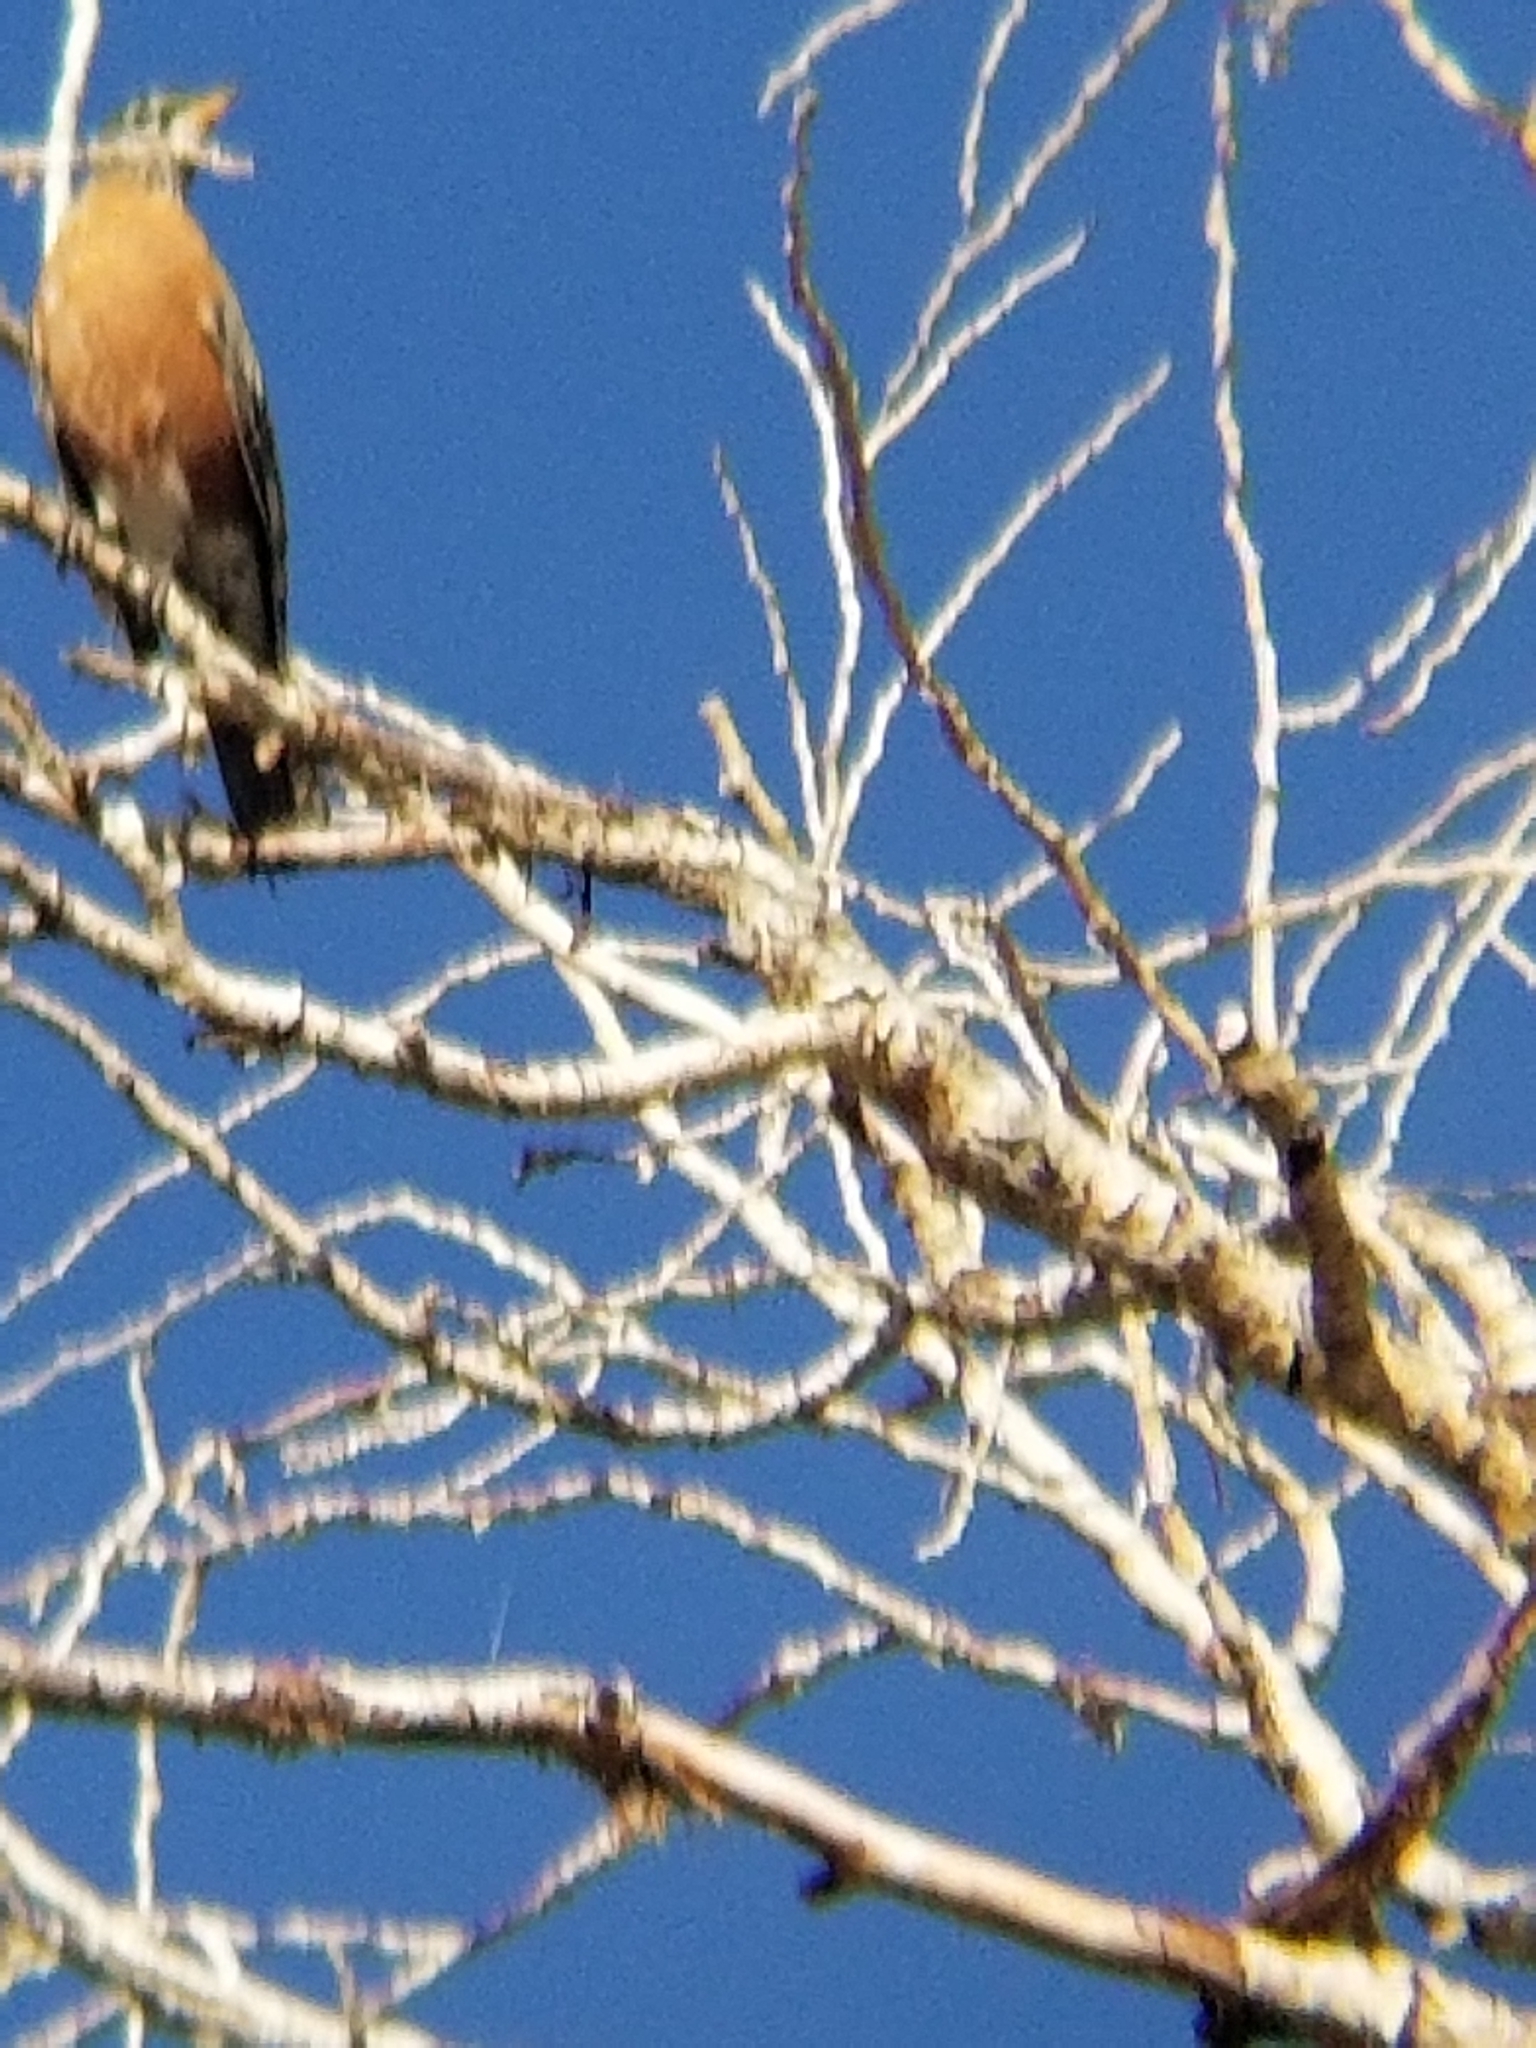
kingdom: Animalia
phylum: Chordata
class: Aves
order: Passeriformes
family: Turdidae
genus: Turdus
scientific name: Turdus migratorius
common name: American robin
